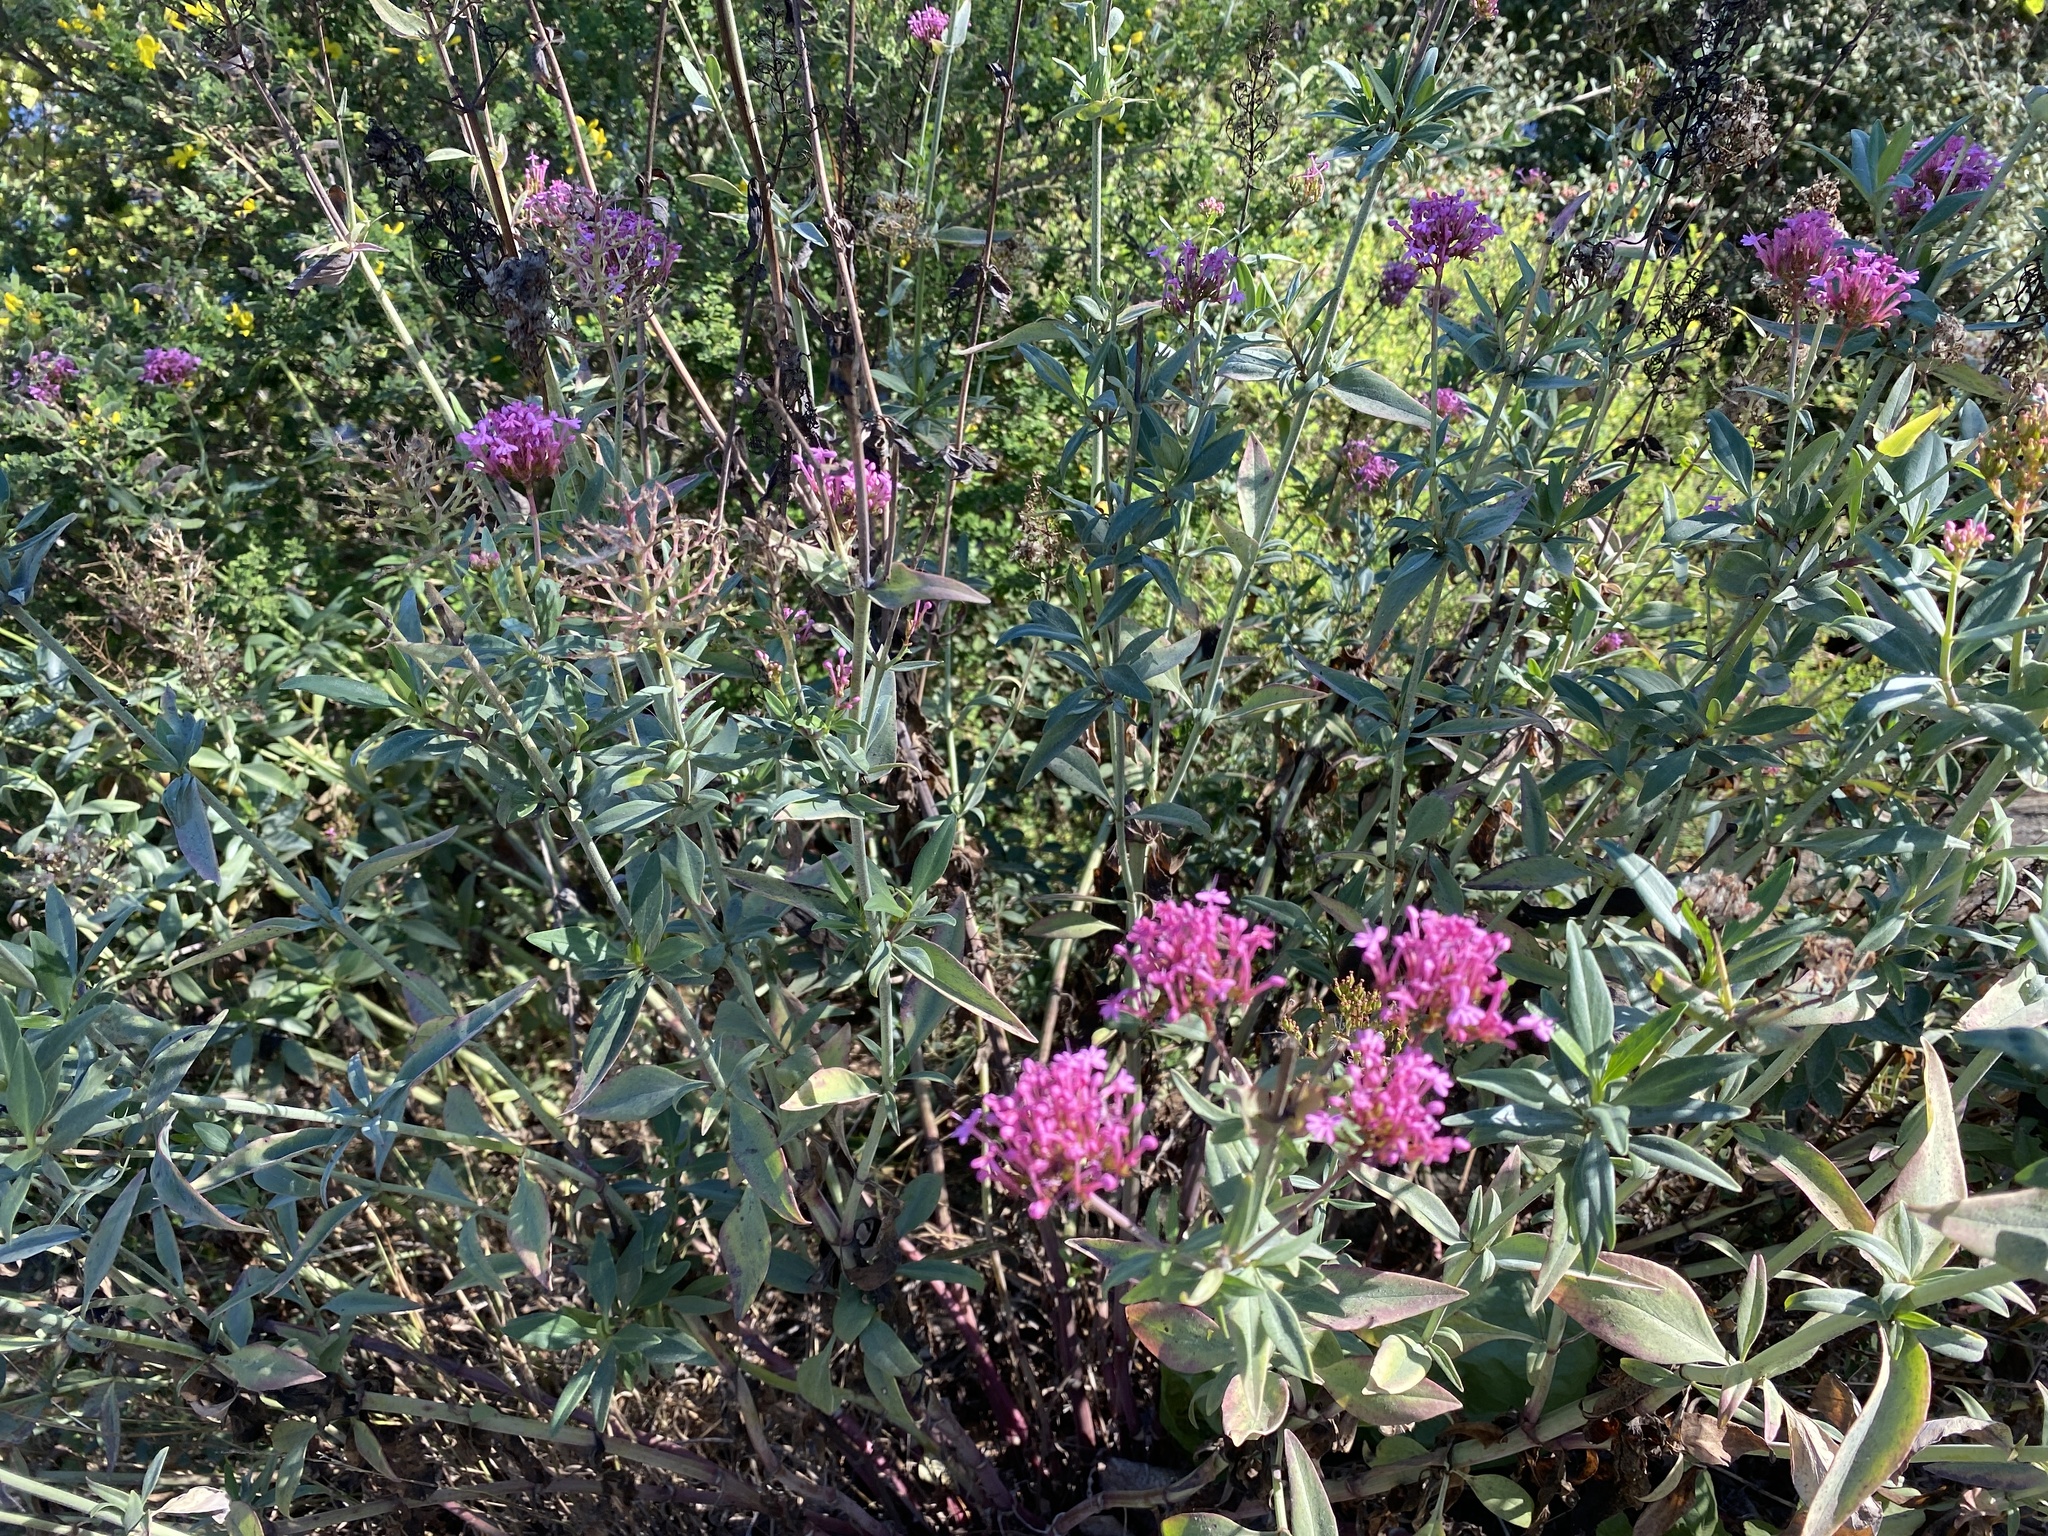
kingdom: Plantae
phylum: Tracheophyta
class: Magnoliopsida
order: Dipsacales
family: Caprifoliaceae
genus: Centranthus
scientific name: Centranthus ruber
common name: Red valerian
